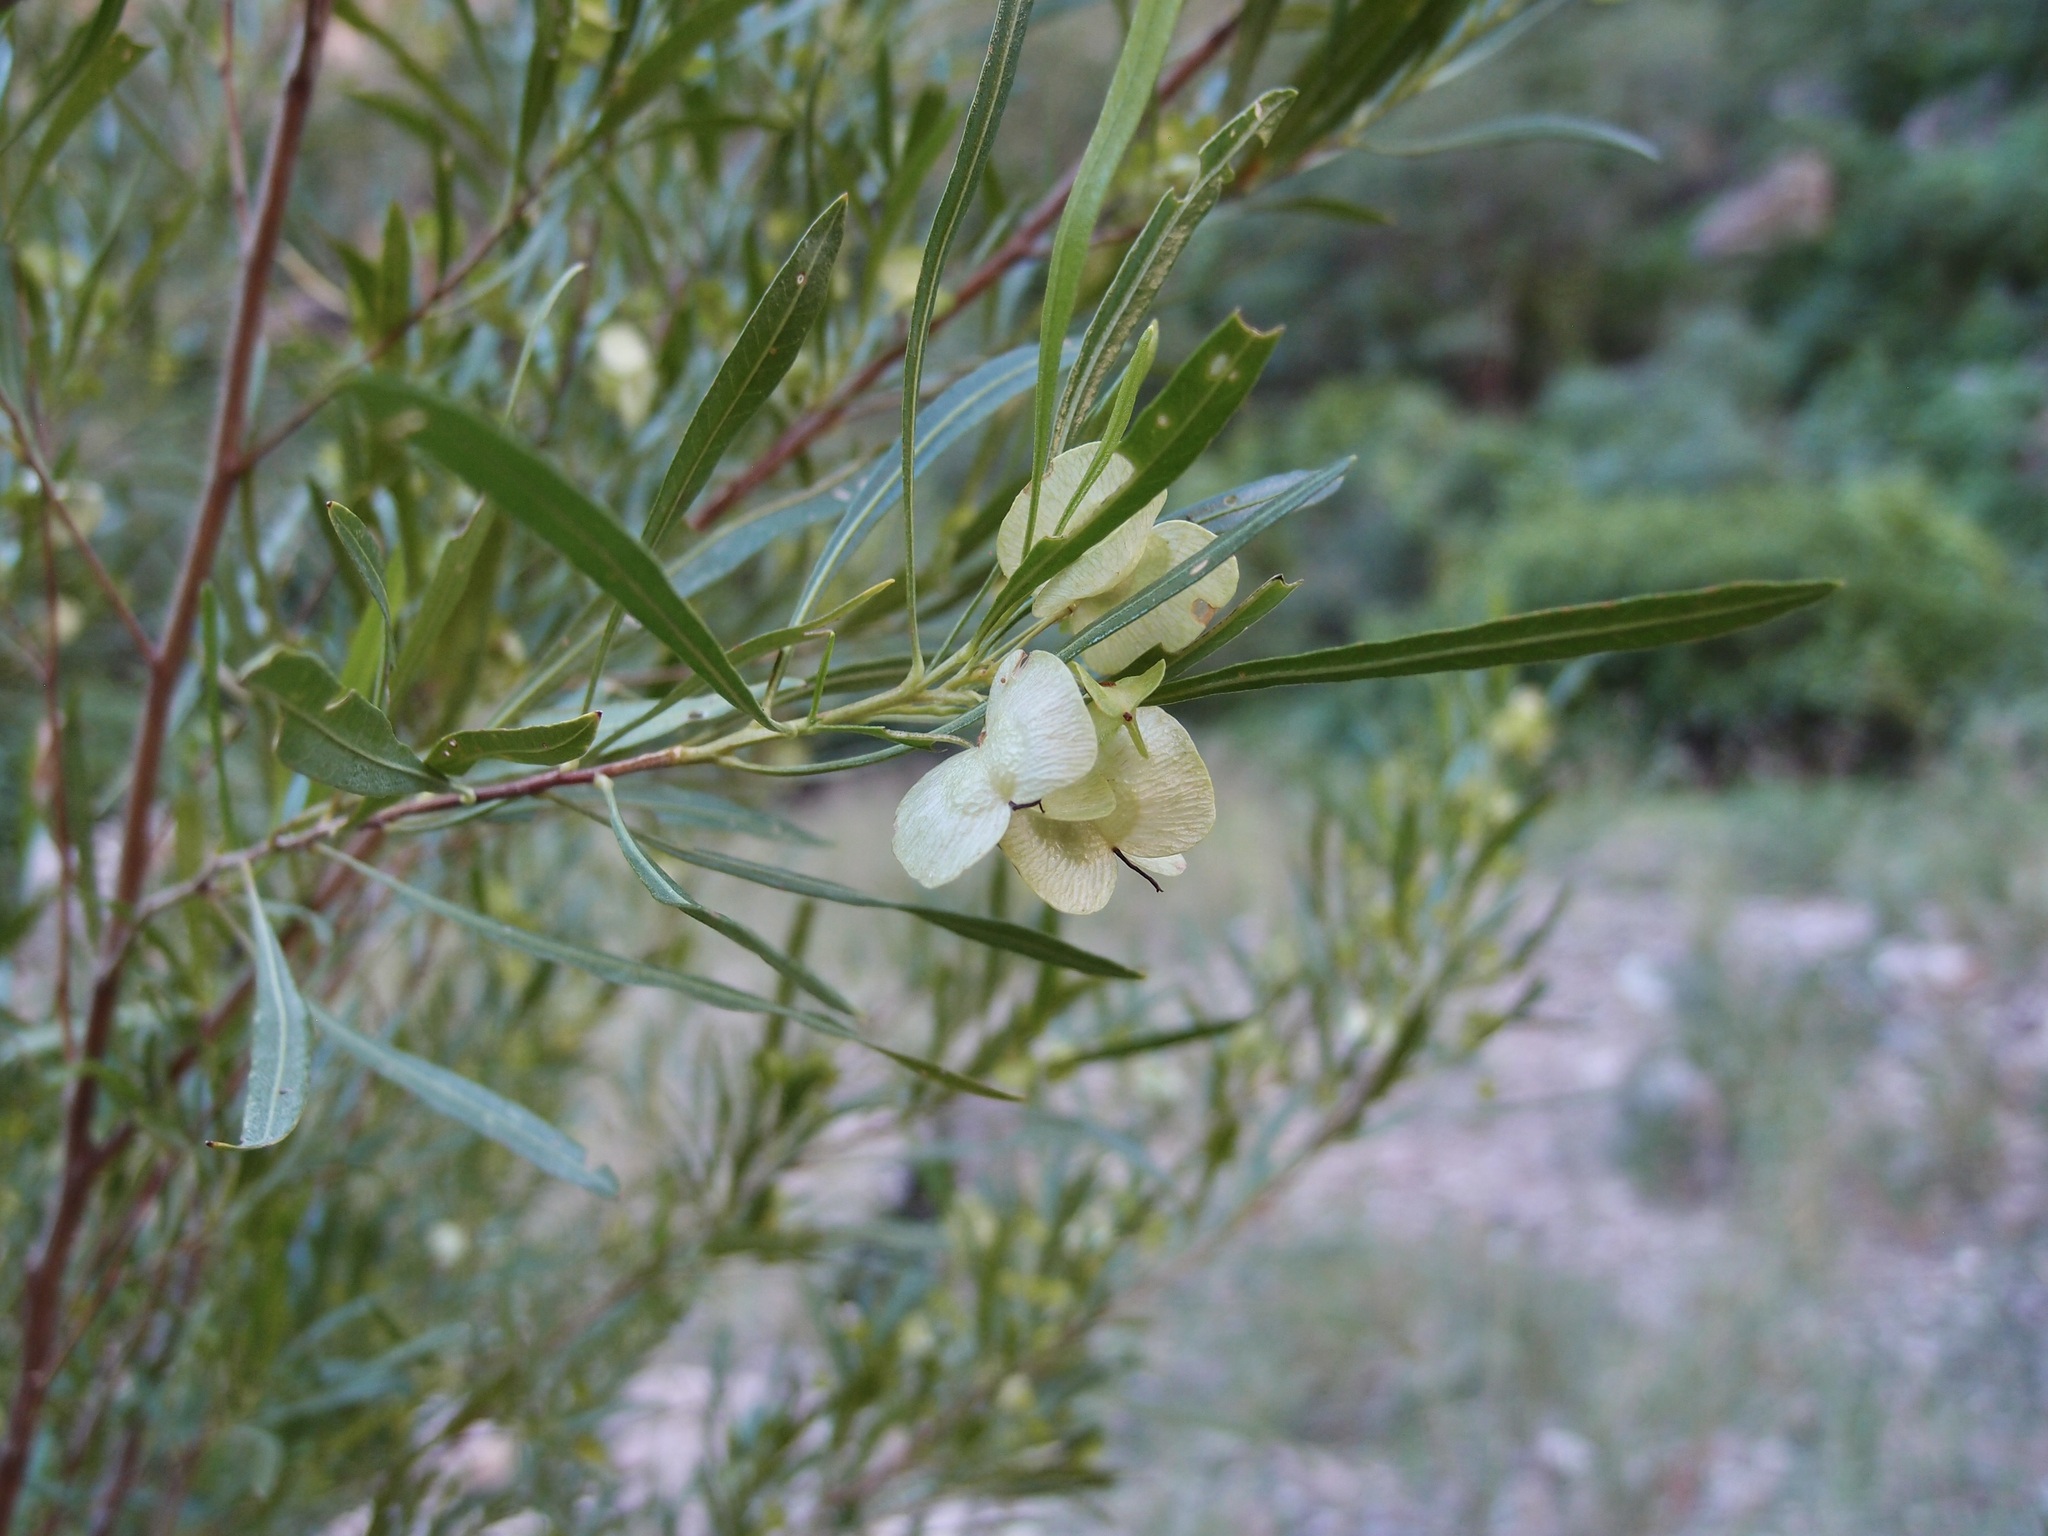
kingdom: Plantae
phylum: Tracheophyta
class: Magnoliopsida
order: Sapindales
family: Sapindaceae
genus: Dodonaea
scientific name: Dodonaea viscosa
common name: Hopbush
